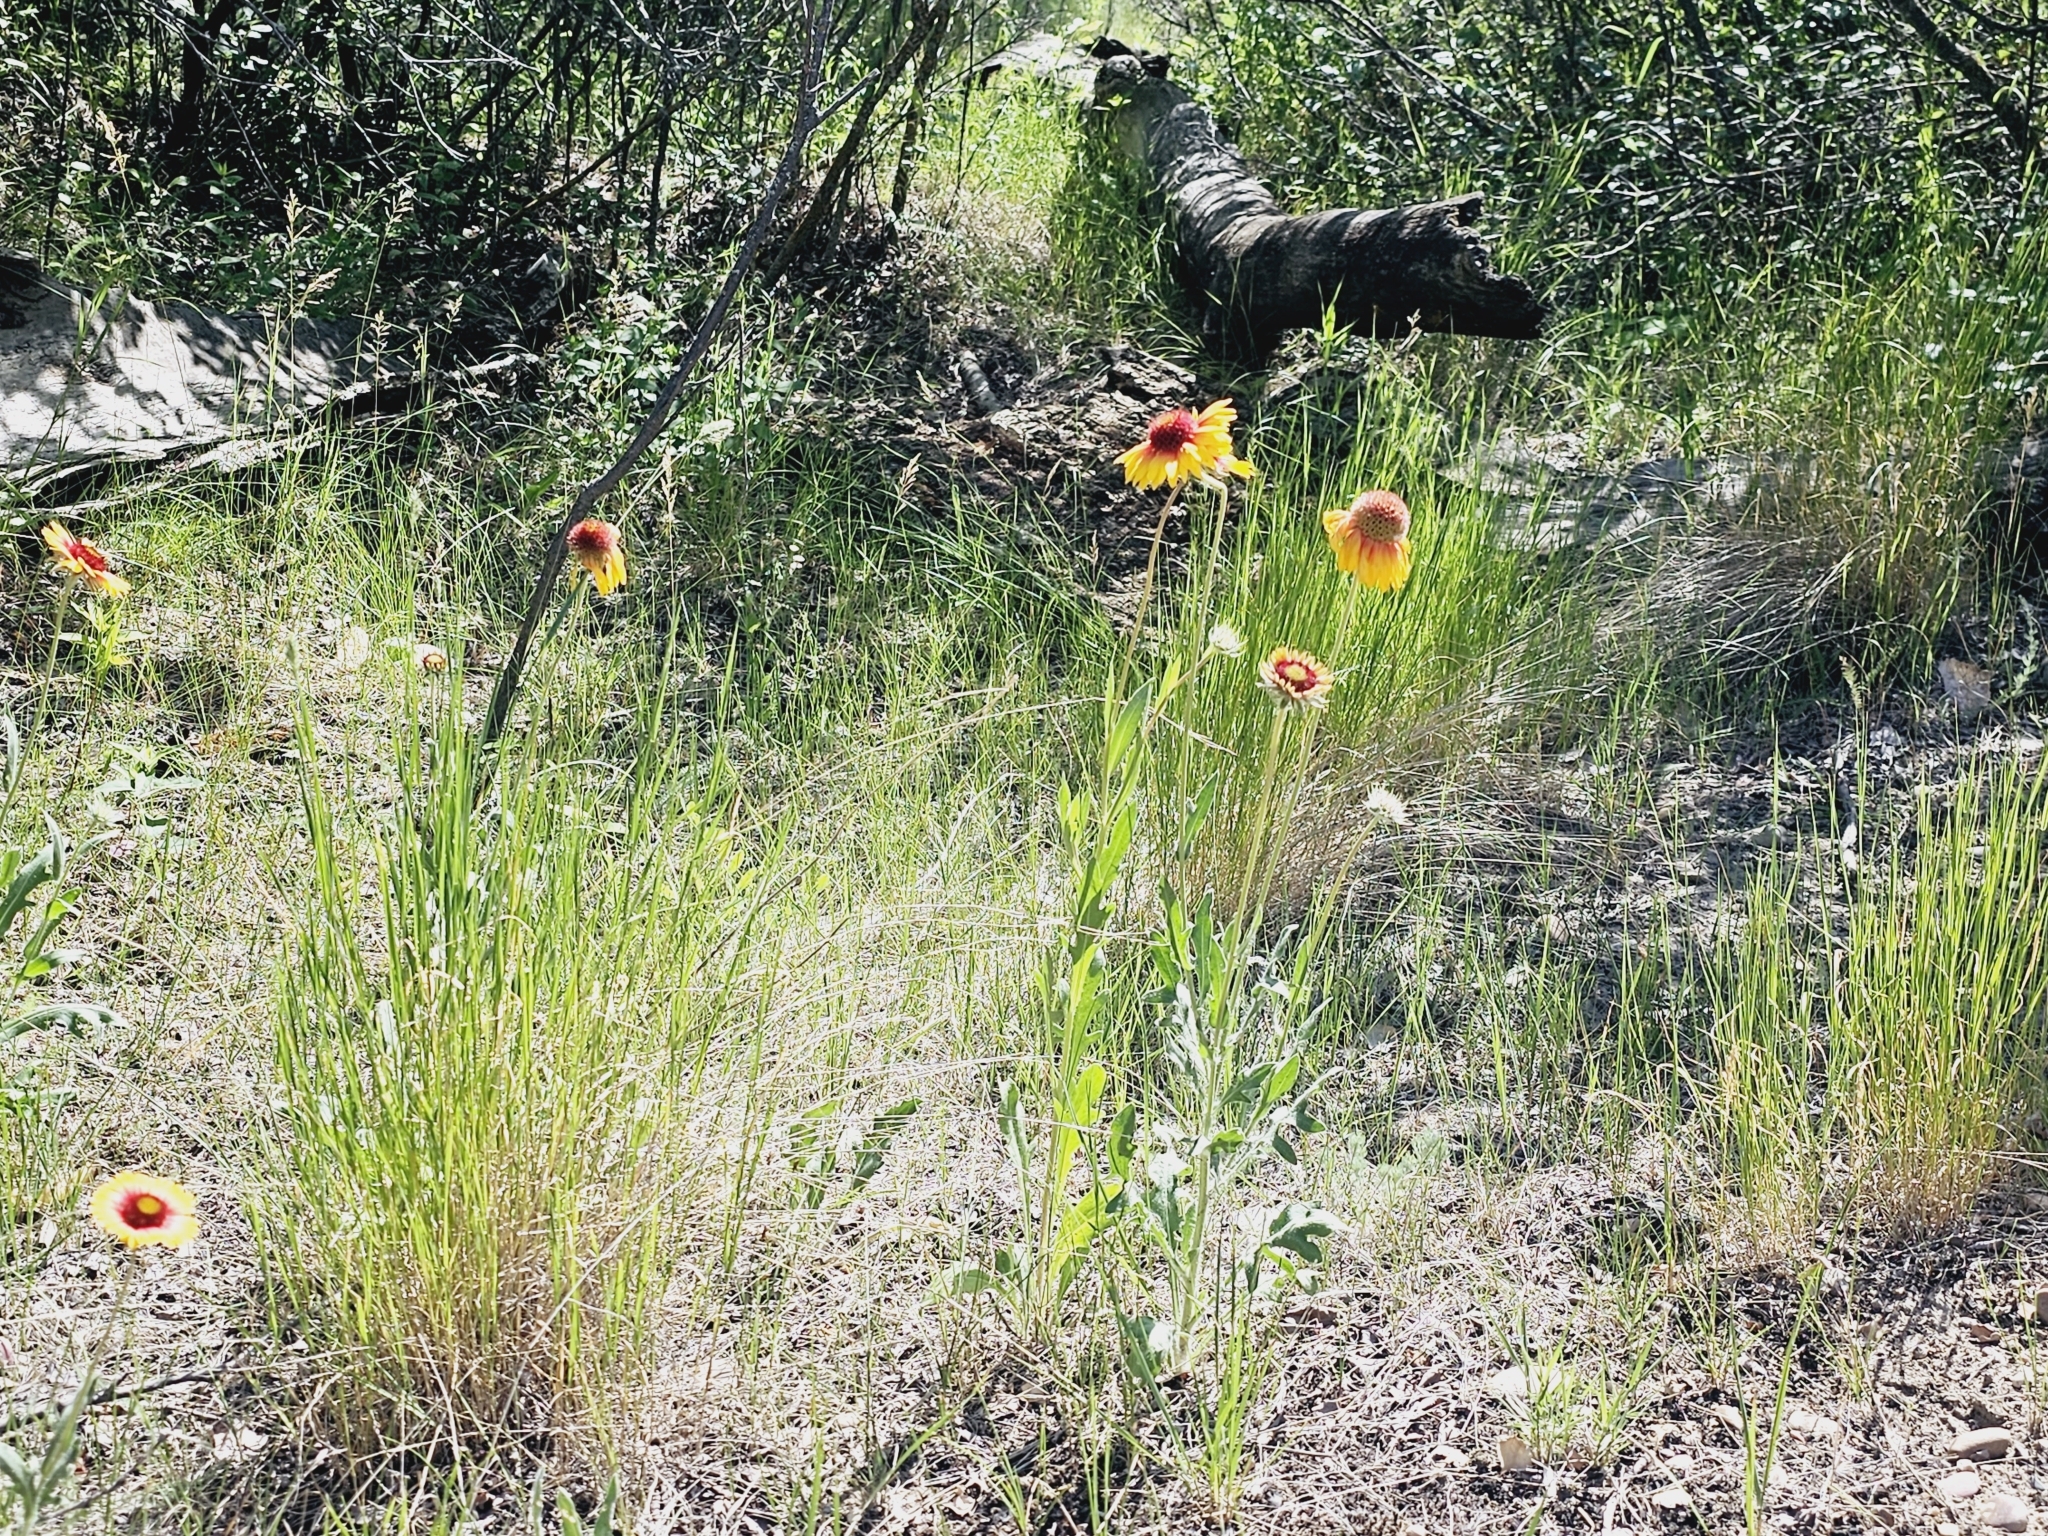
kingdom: Plantae
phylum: Tracheophyta
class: Magnoliopsida
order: Asterales
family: Asteraceae
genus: Gaillardia
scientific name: Gaillardia aristata
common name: Blanket-flower
